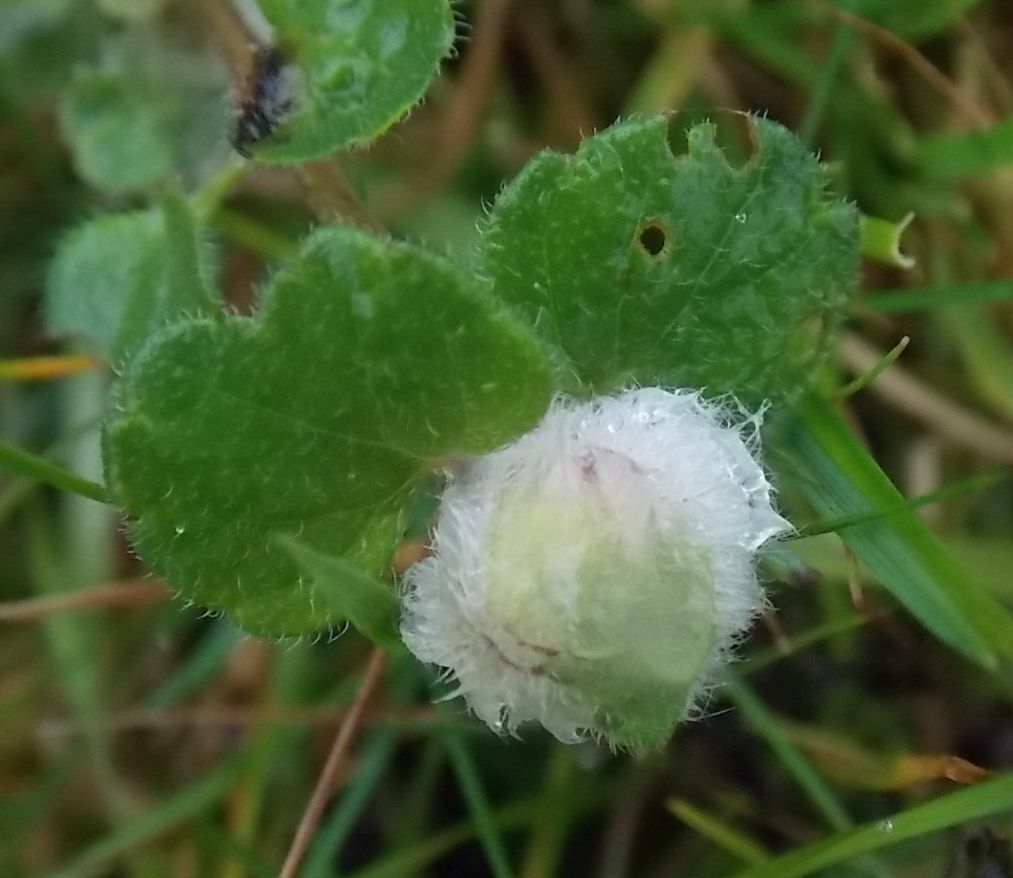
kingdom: Animalia
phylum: Arthropoda
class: Insecta
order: Diptera
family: Cecidomyiidae
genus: Jaapiella
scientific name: Jaapiella veronicae
